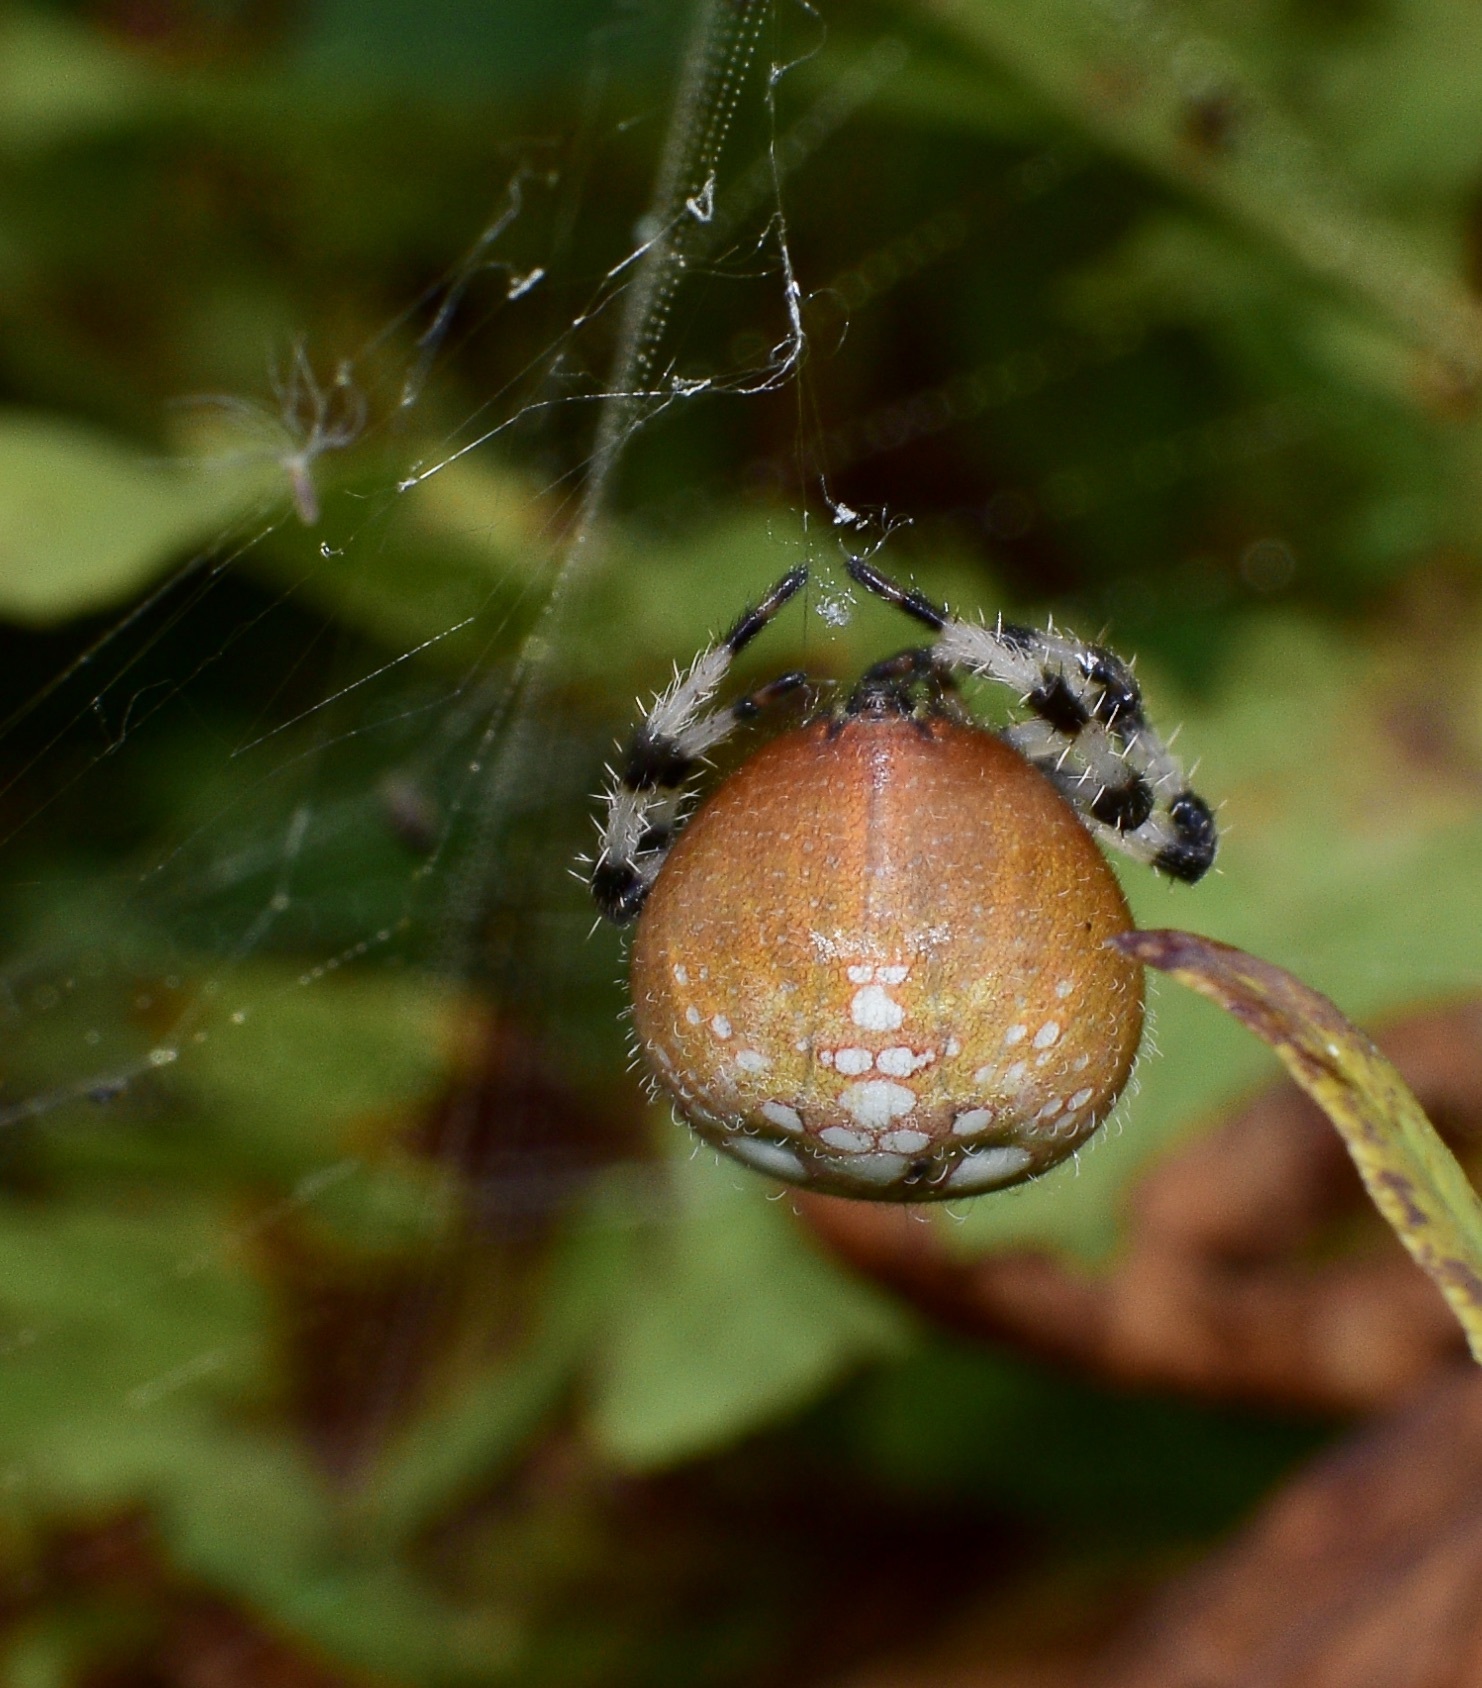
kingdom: Animalia
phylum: Arthropoda
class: Arachnida
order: Araneae
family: Araneidae
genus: Araneus
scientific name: Araneus trifolium
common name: Shamrock orbweaver
